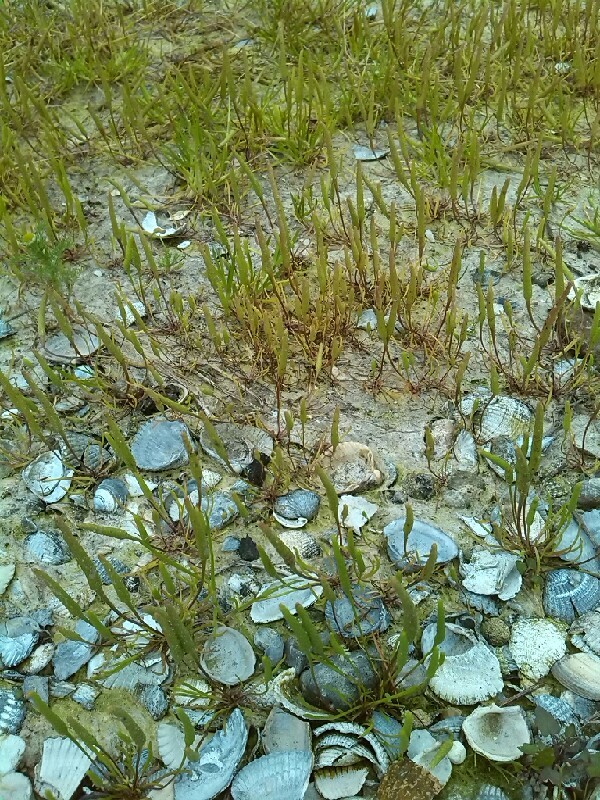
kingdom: Plantae
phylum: Tracheophyta
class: Magnoliopsida
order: Ranunculales
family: Ranunculaceae
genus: Myosurus
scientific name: Myosurus minimus
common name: Mousetail
